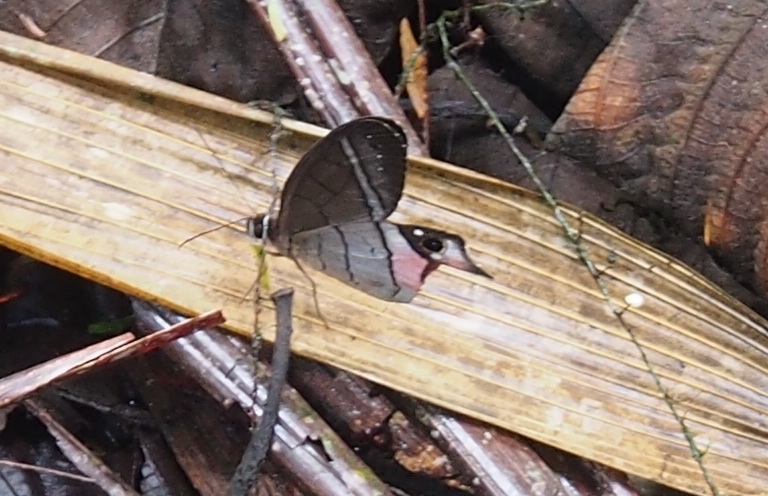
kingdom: Animalia
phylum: Arthropoda
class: Insecta
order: Lepidoptera
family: Nymphalidae
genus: Pierella
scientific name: Pierella helvina
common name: Red-washed satyr
